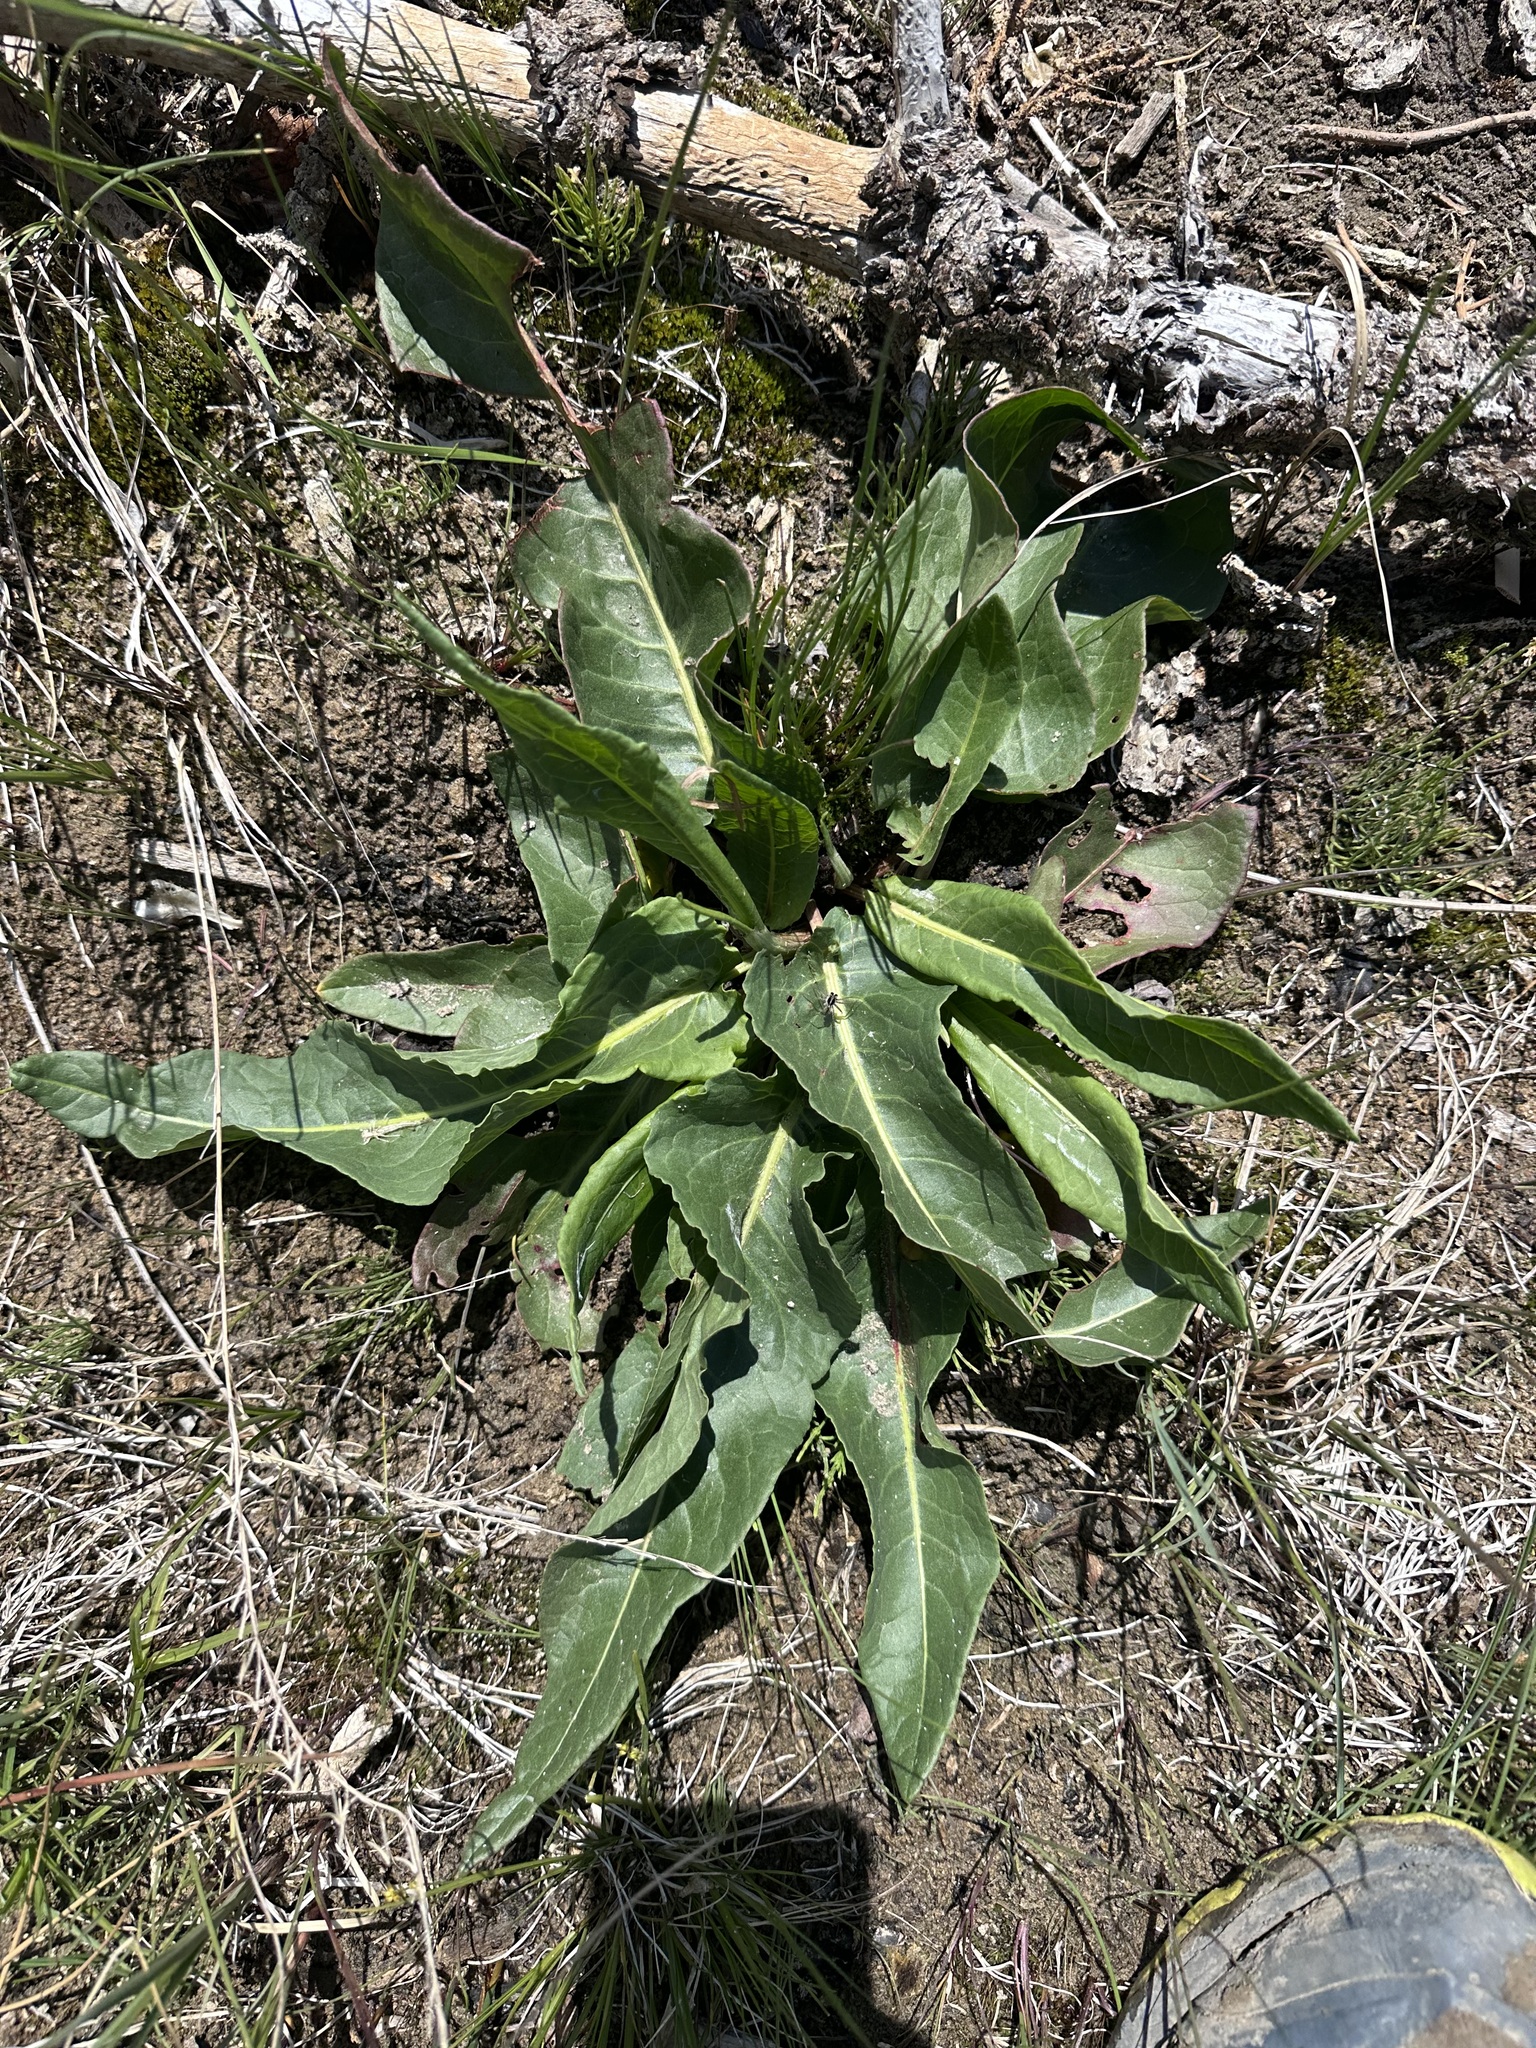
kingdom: Plantae
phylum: Tracheophyta
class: Magnoliopsida
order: Caryophyllales
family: Polygonaceae
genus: Rumex
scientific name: Rumex occidentalis
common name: Western dock
